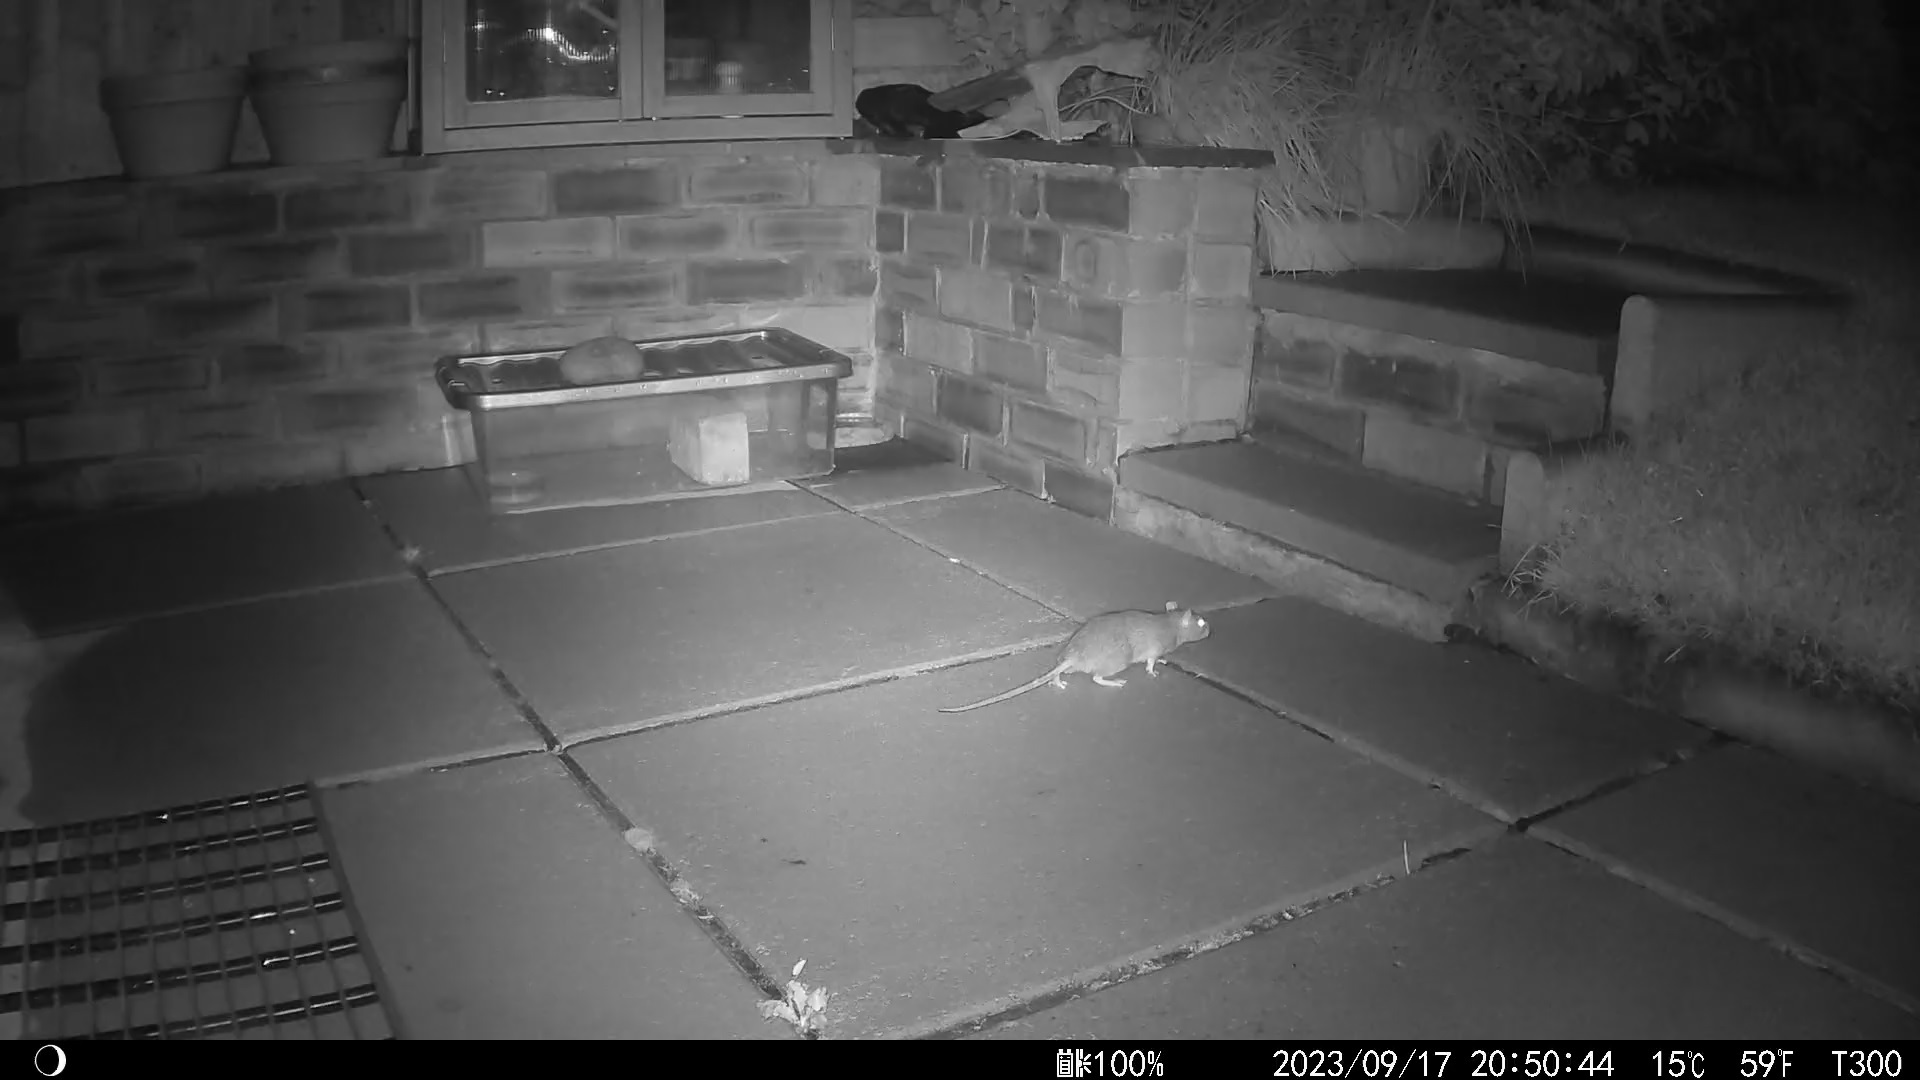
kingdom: Animalia
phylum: Chordata
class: Mammalia
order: Rodentia
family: Muridae
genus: Rattus
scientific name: Rattus norvegicus
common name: Brown rat
